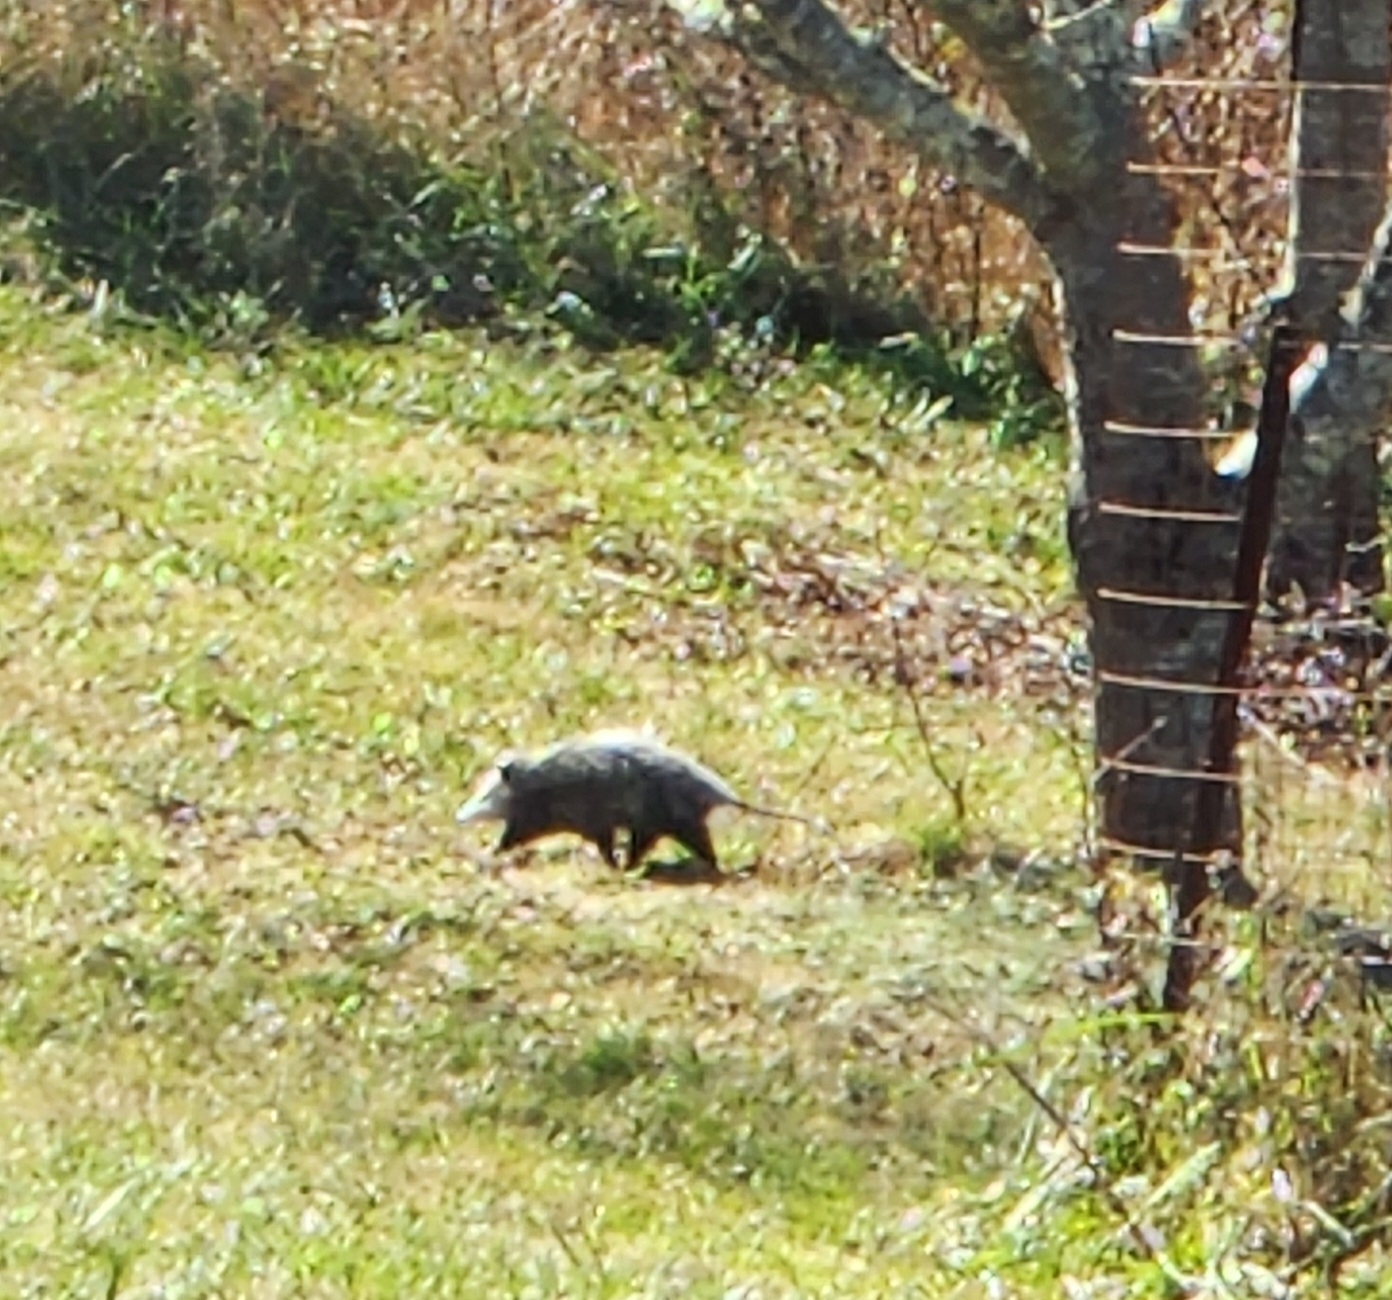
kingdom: Animalia
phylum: Chordata
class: Mammalia
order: Didelphimorphia
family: Didelphidae
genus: Didelphis
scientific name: Didelphis virginiana
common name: Virginia opossum
